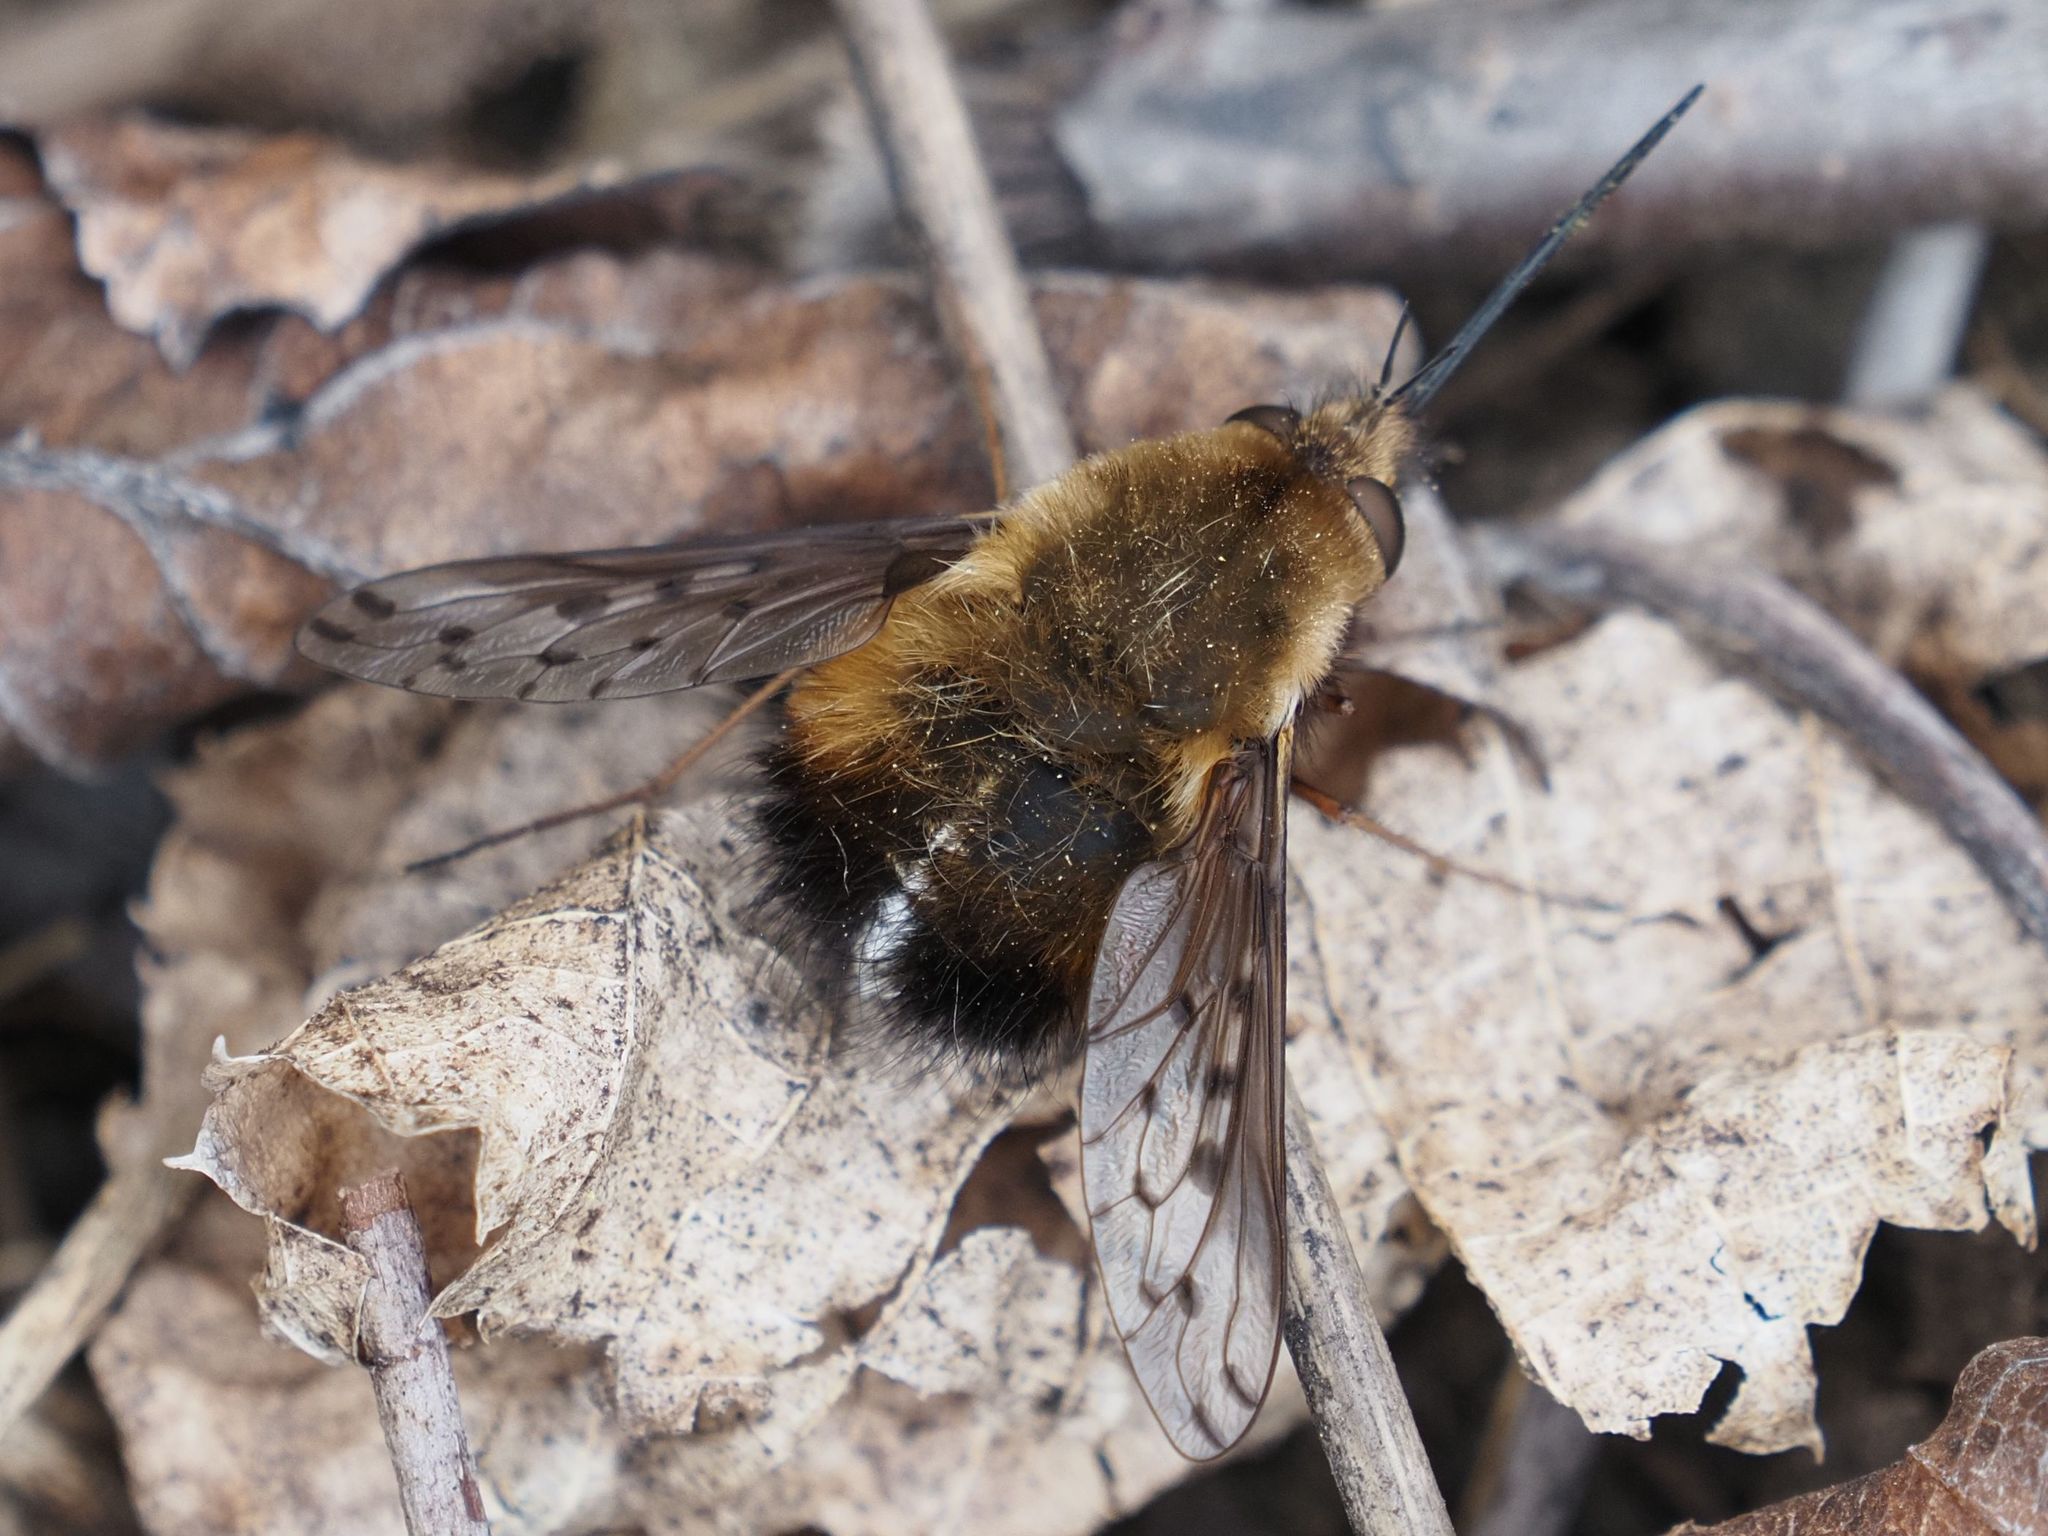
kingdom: Animalia
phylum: Arthropoda
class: Insecta
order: Diptera
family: Bombyliidae
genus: Bombylius
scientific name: Bombylius discolor
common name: Dotted bee-fly
